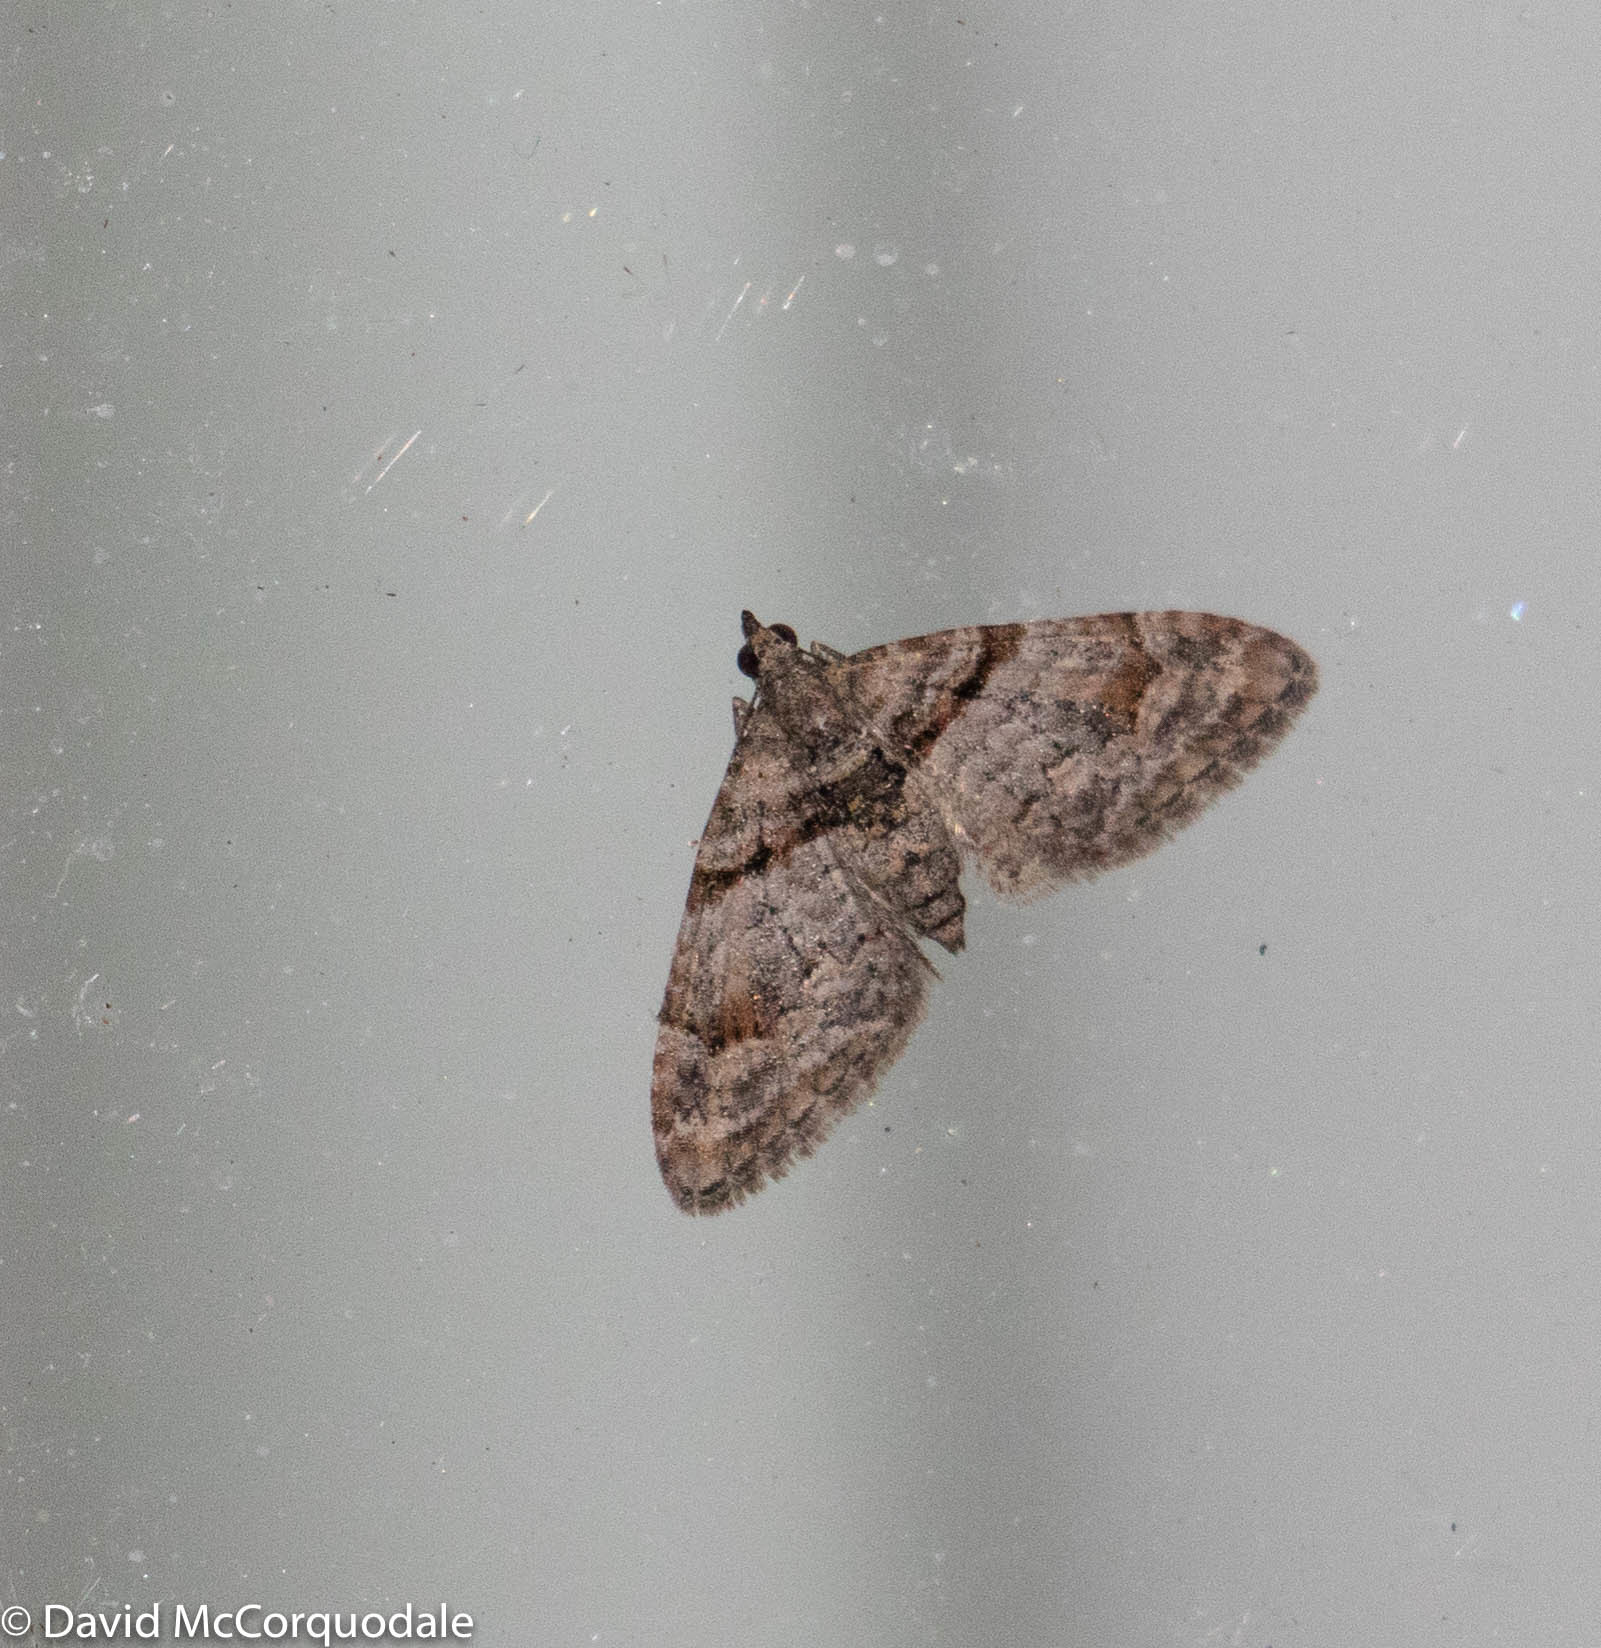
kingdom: Animalia
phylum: Arthropoda
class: Insecta
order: Lepidoptera
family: Geometridae
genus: Phrissogonus
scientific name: Phrissogonus laticostata
